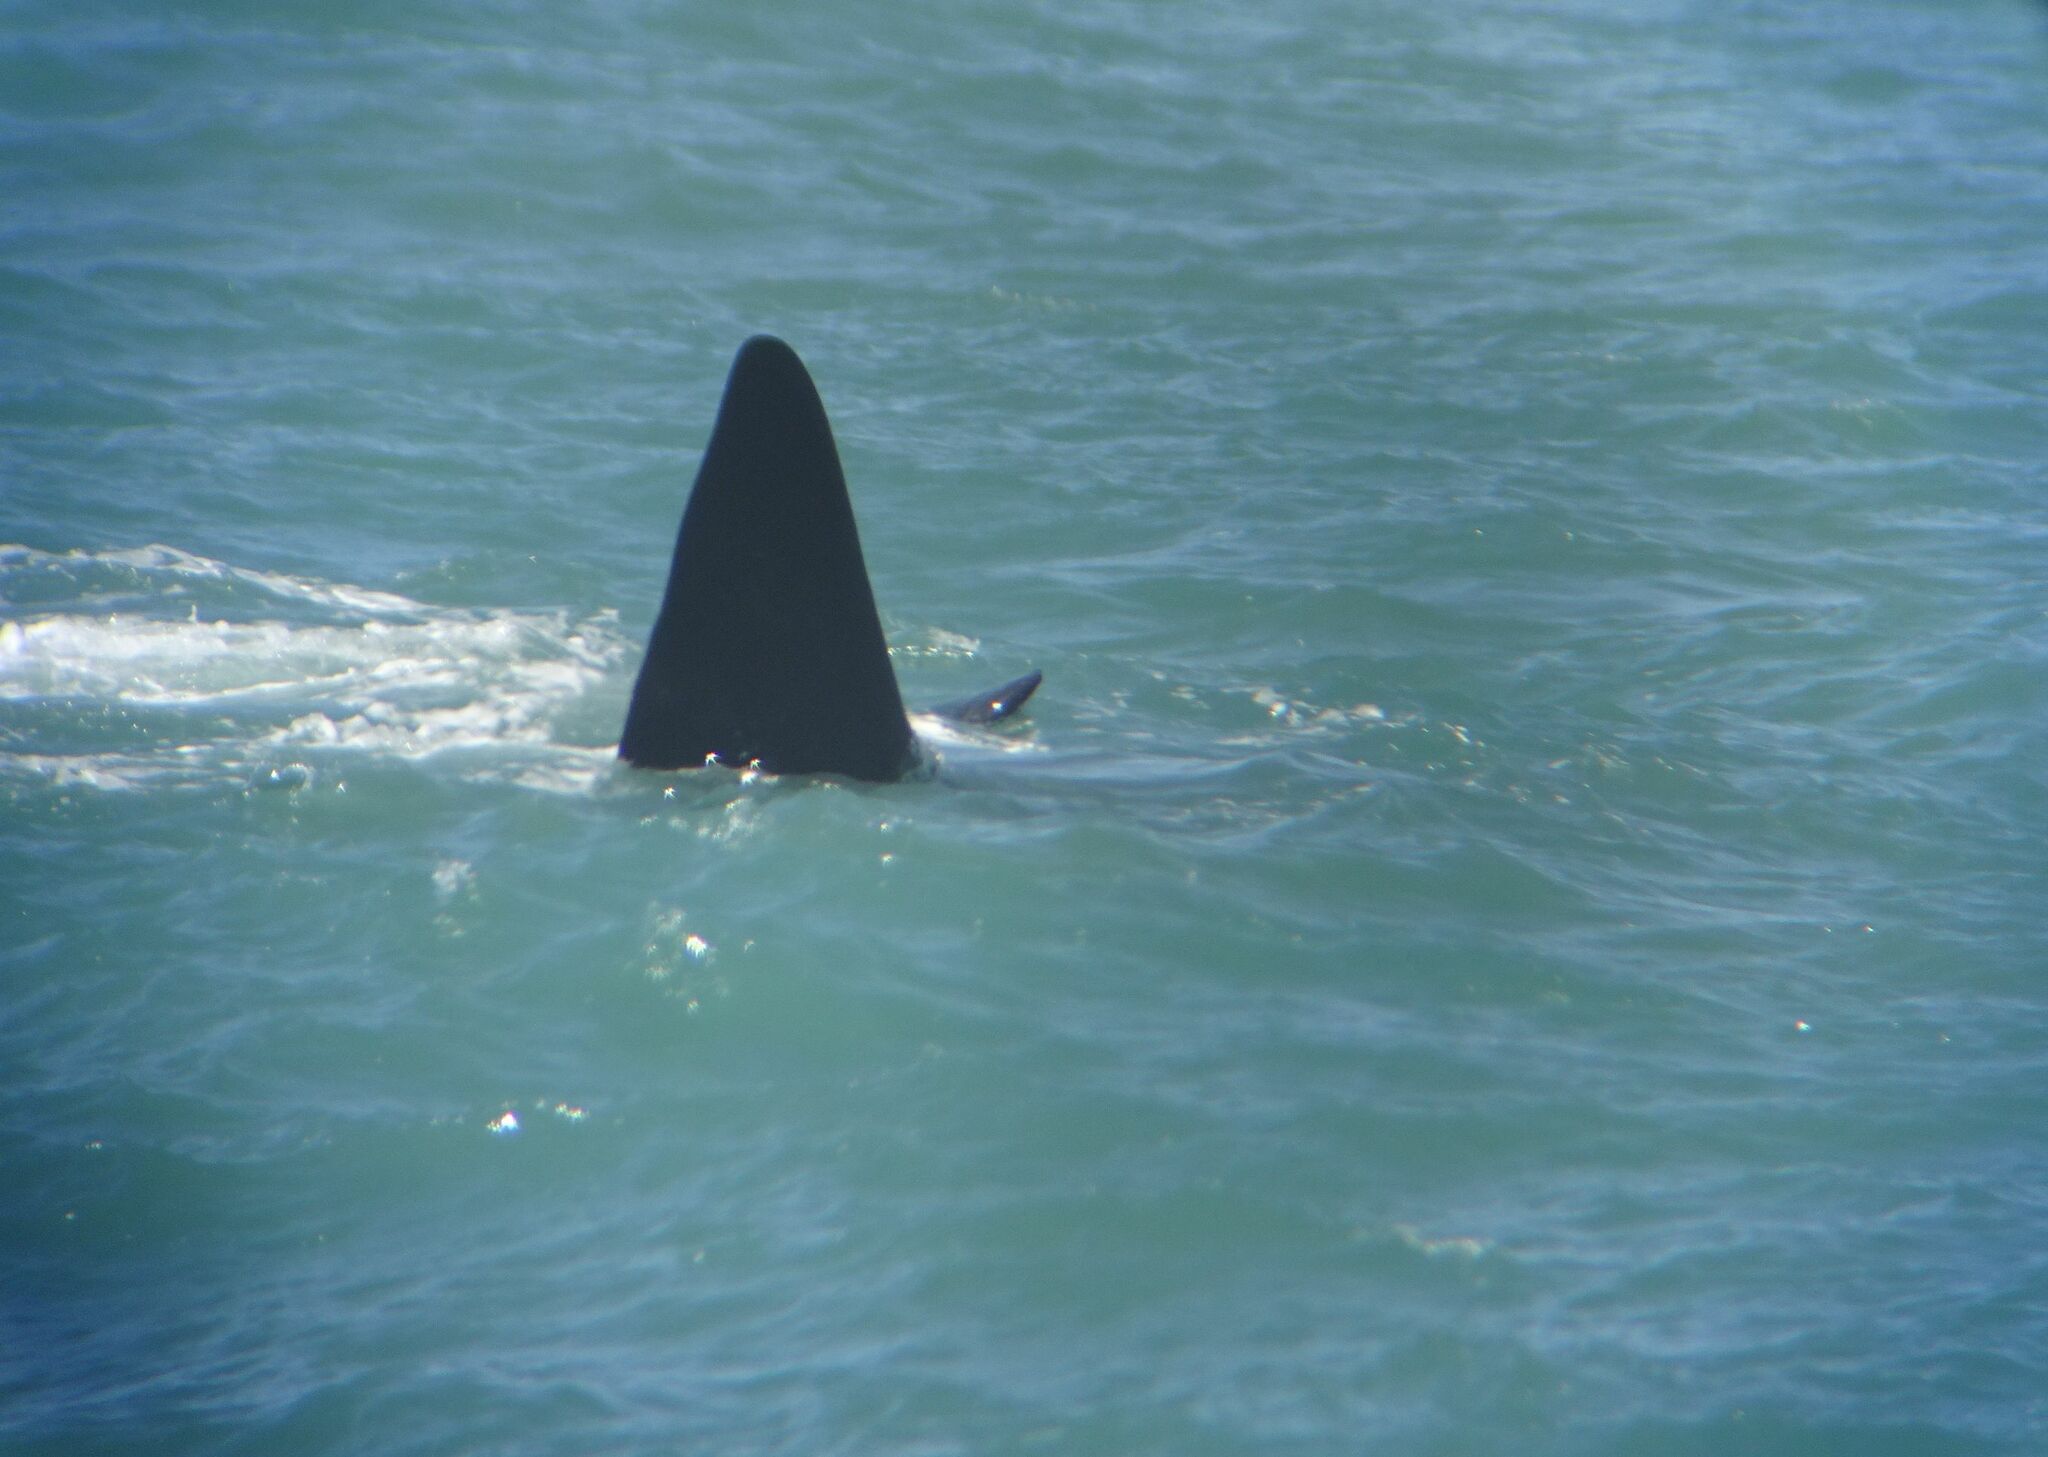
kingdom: Animalia
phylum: Chordata
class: Mammalia
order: Cetacea
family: Balaenidae
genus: Eubalaena
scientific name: Eubalaena australis
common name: Southern right whale
